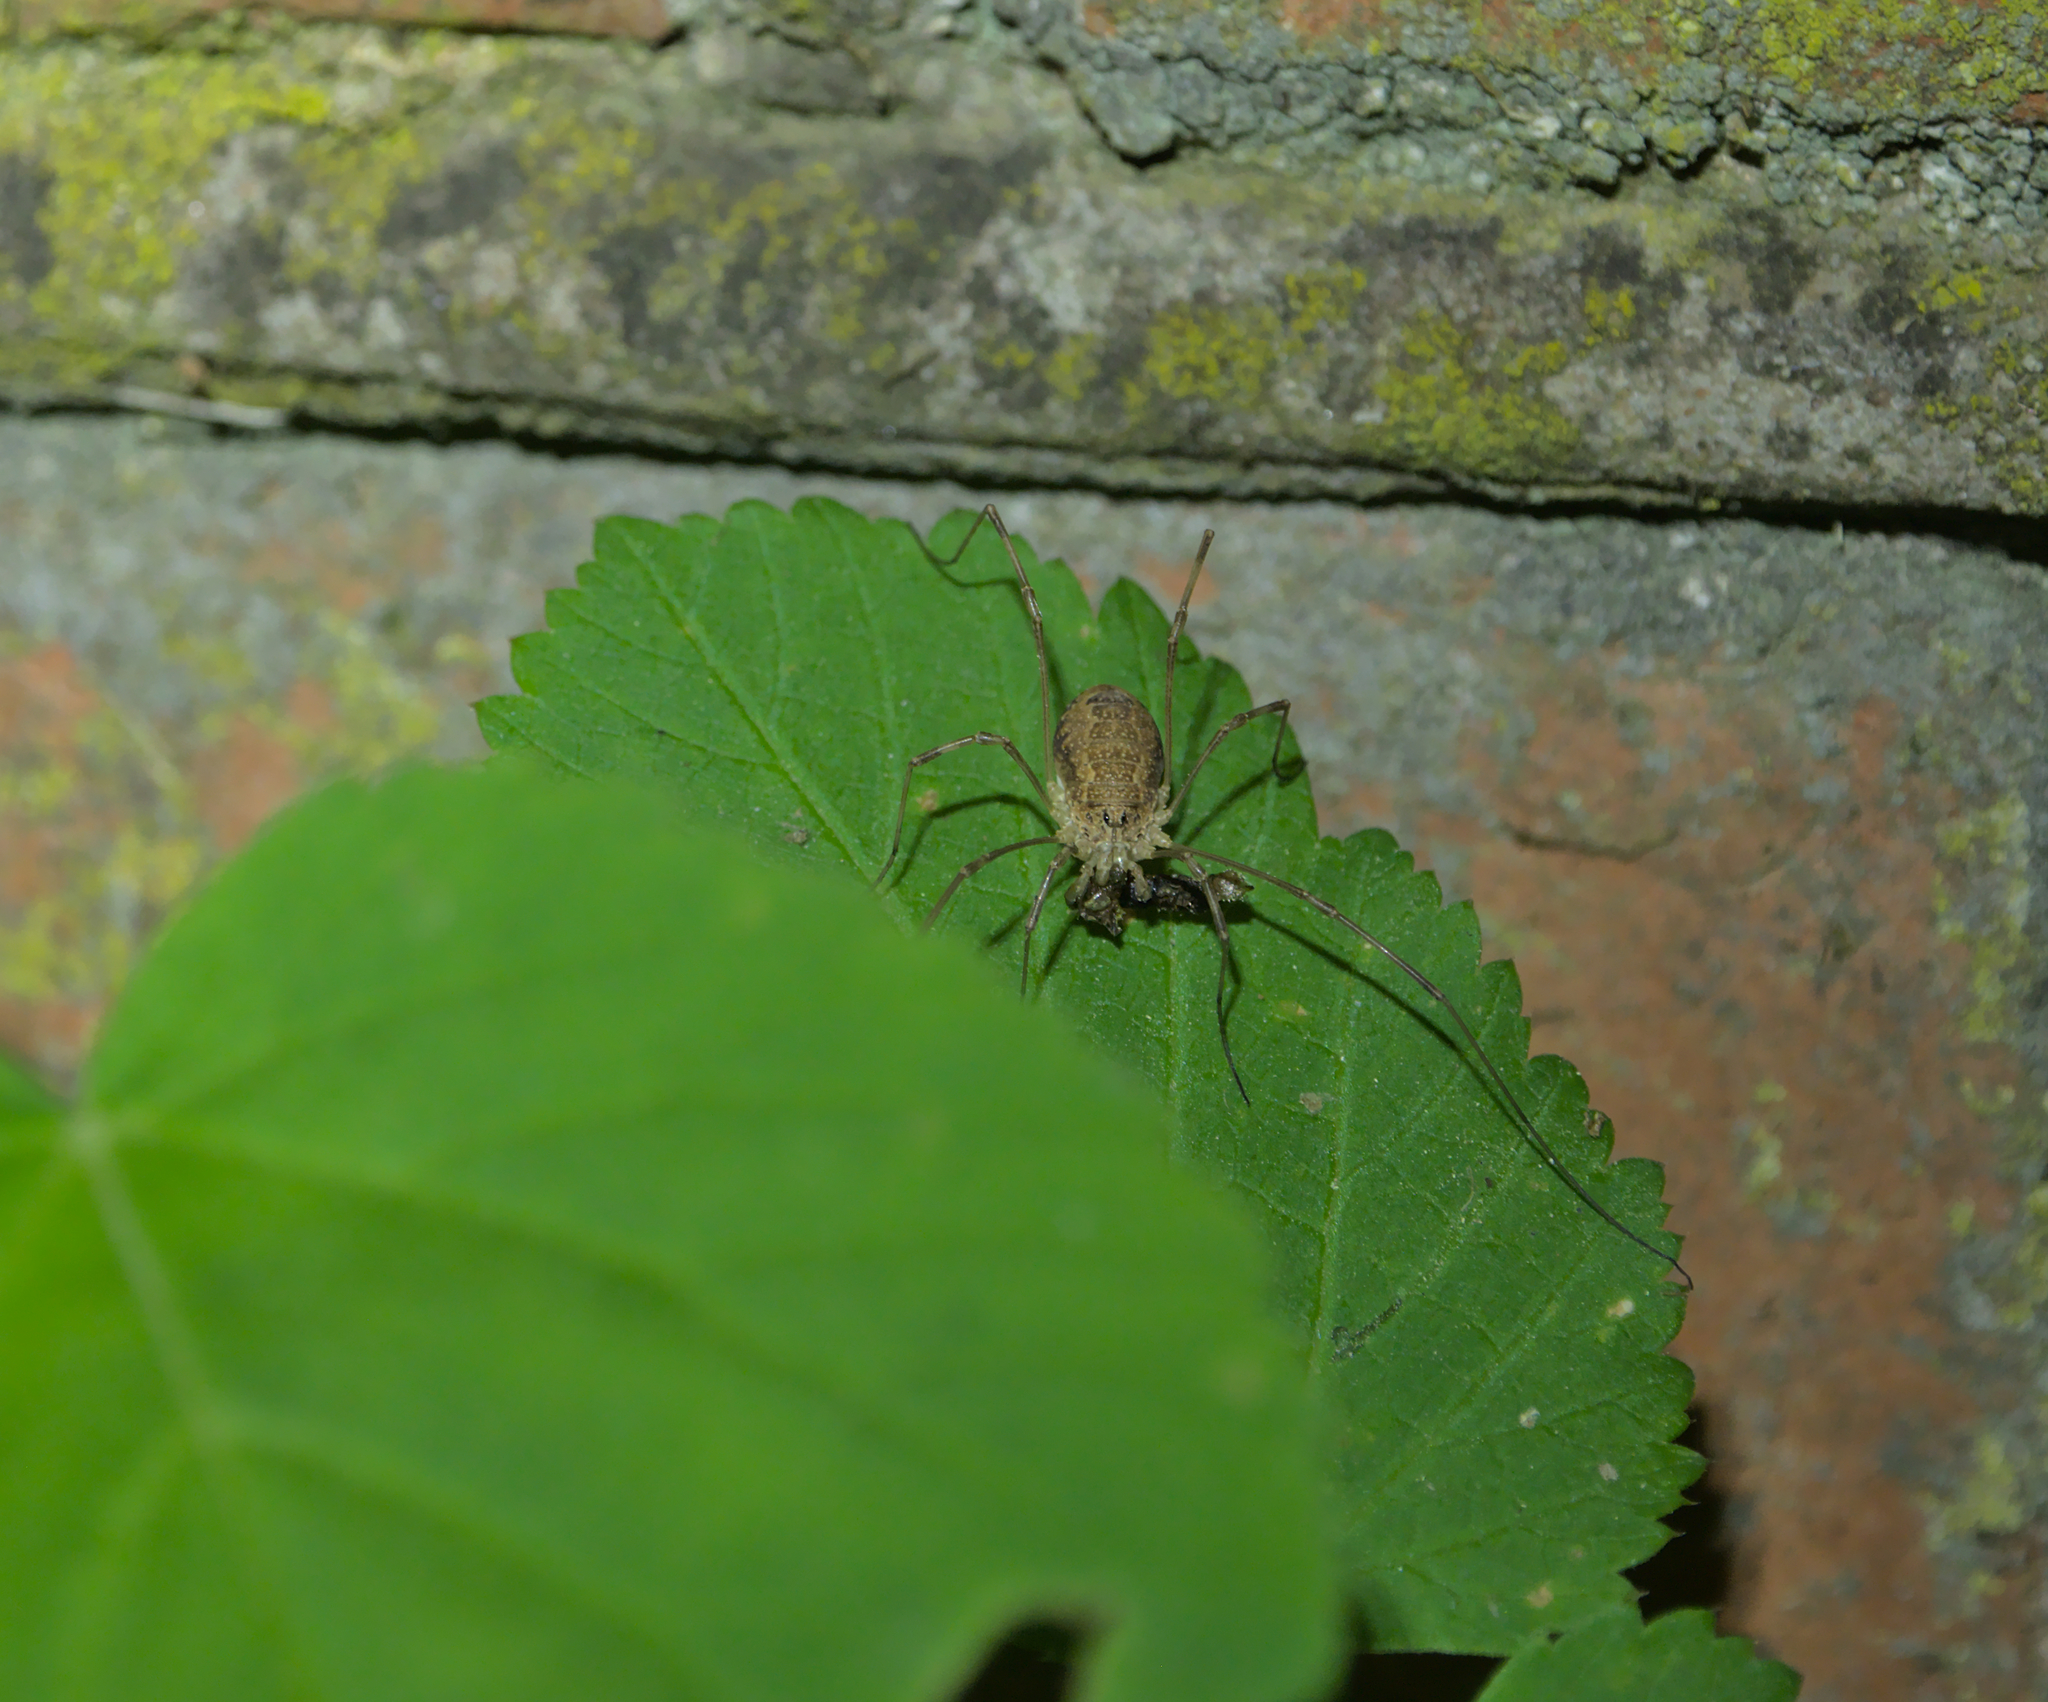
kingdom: Animalia
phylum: Arthropoda
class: Arachnida
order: Opiliones
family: Phalangiidae
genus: Rilaena
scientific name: Rilaena triangularis
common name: Spring harvestman
